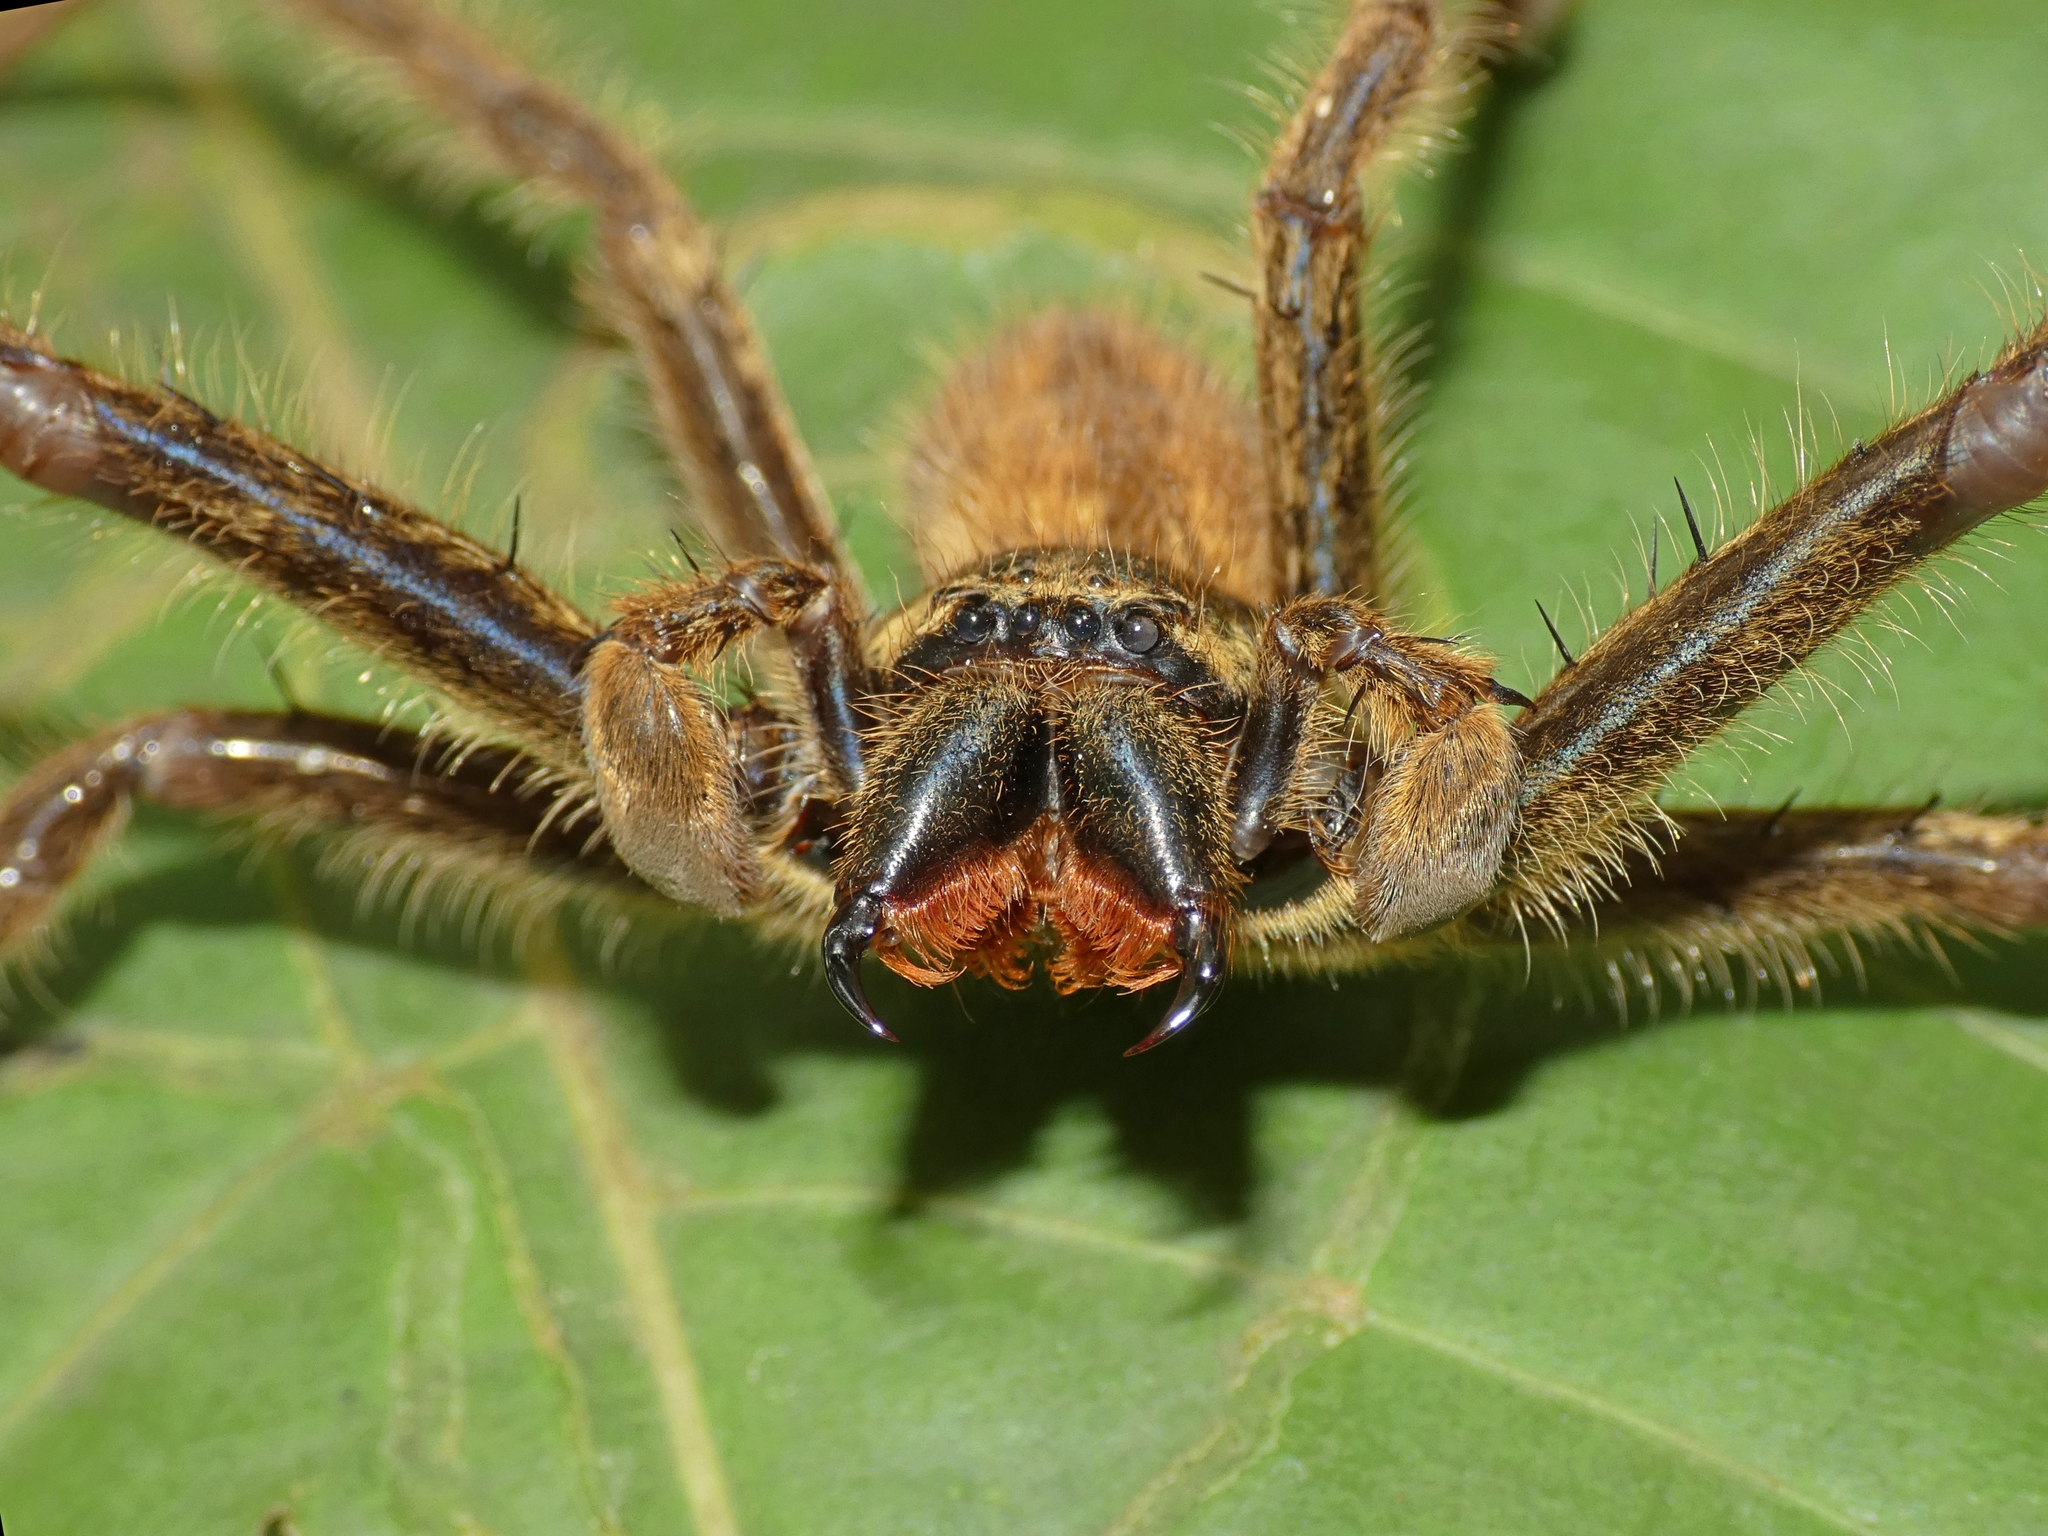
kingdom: Animalia
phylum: Arthropoda
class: Arachnida
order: Araneae
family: Sparassidae
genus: Beregama
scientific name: Beregama cordata
